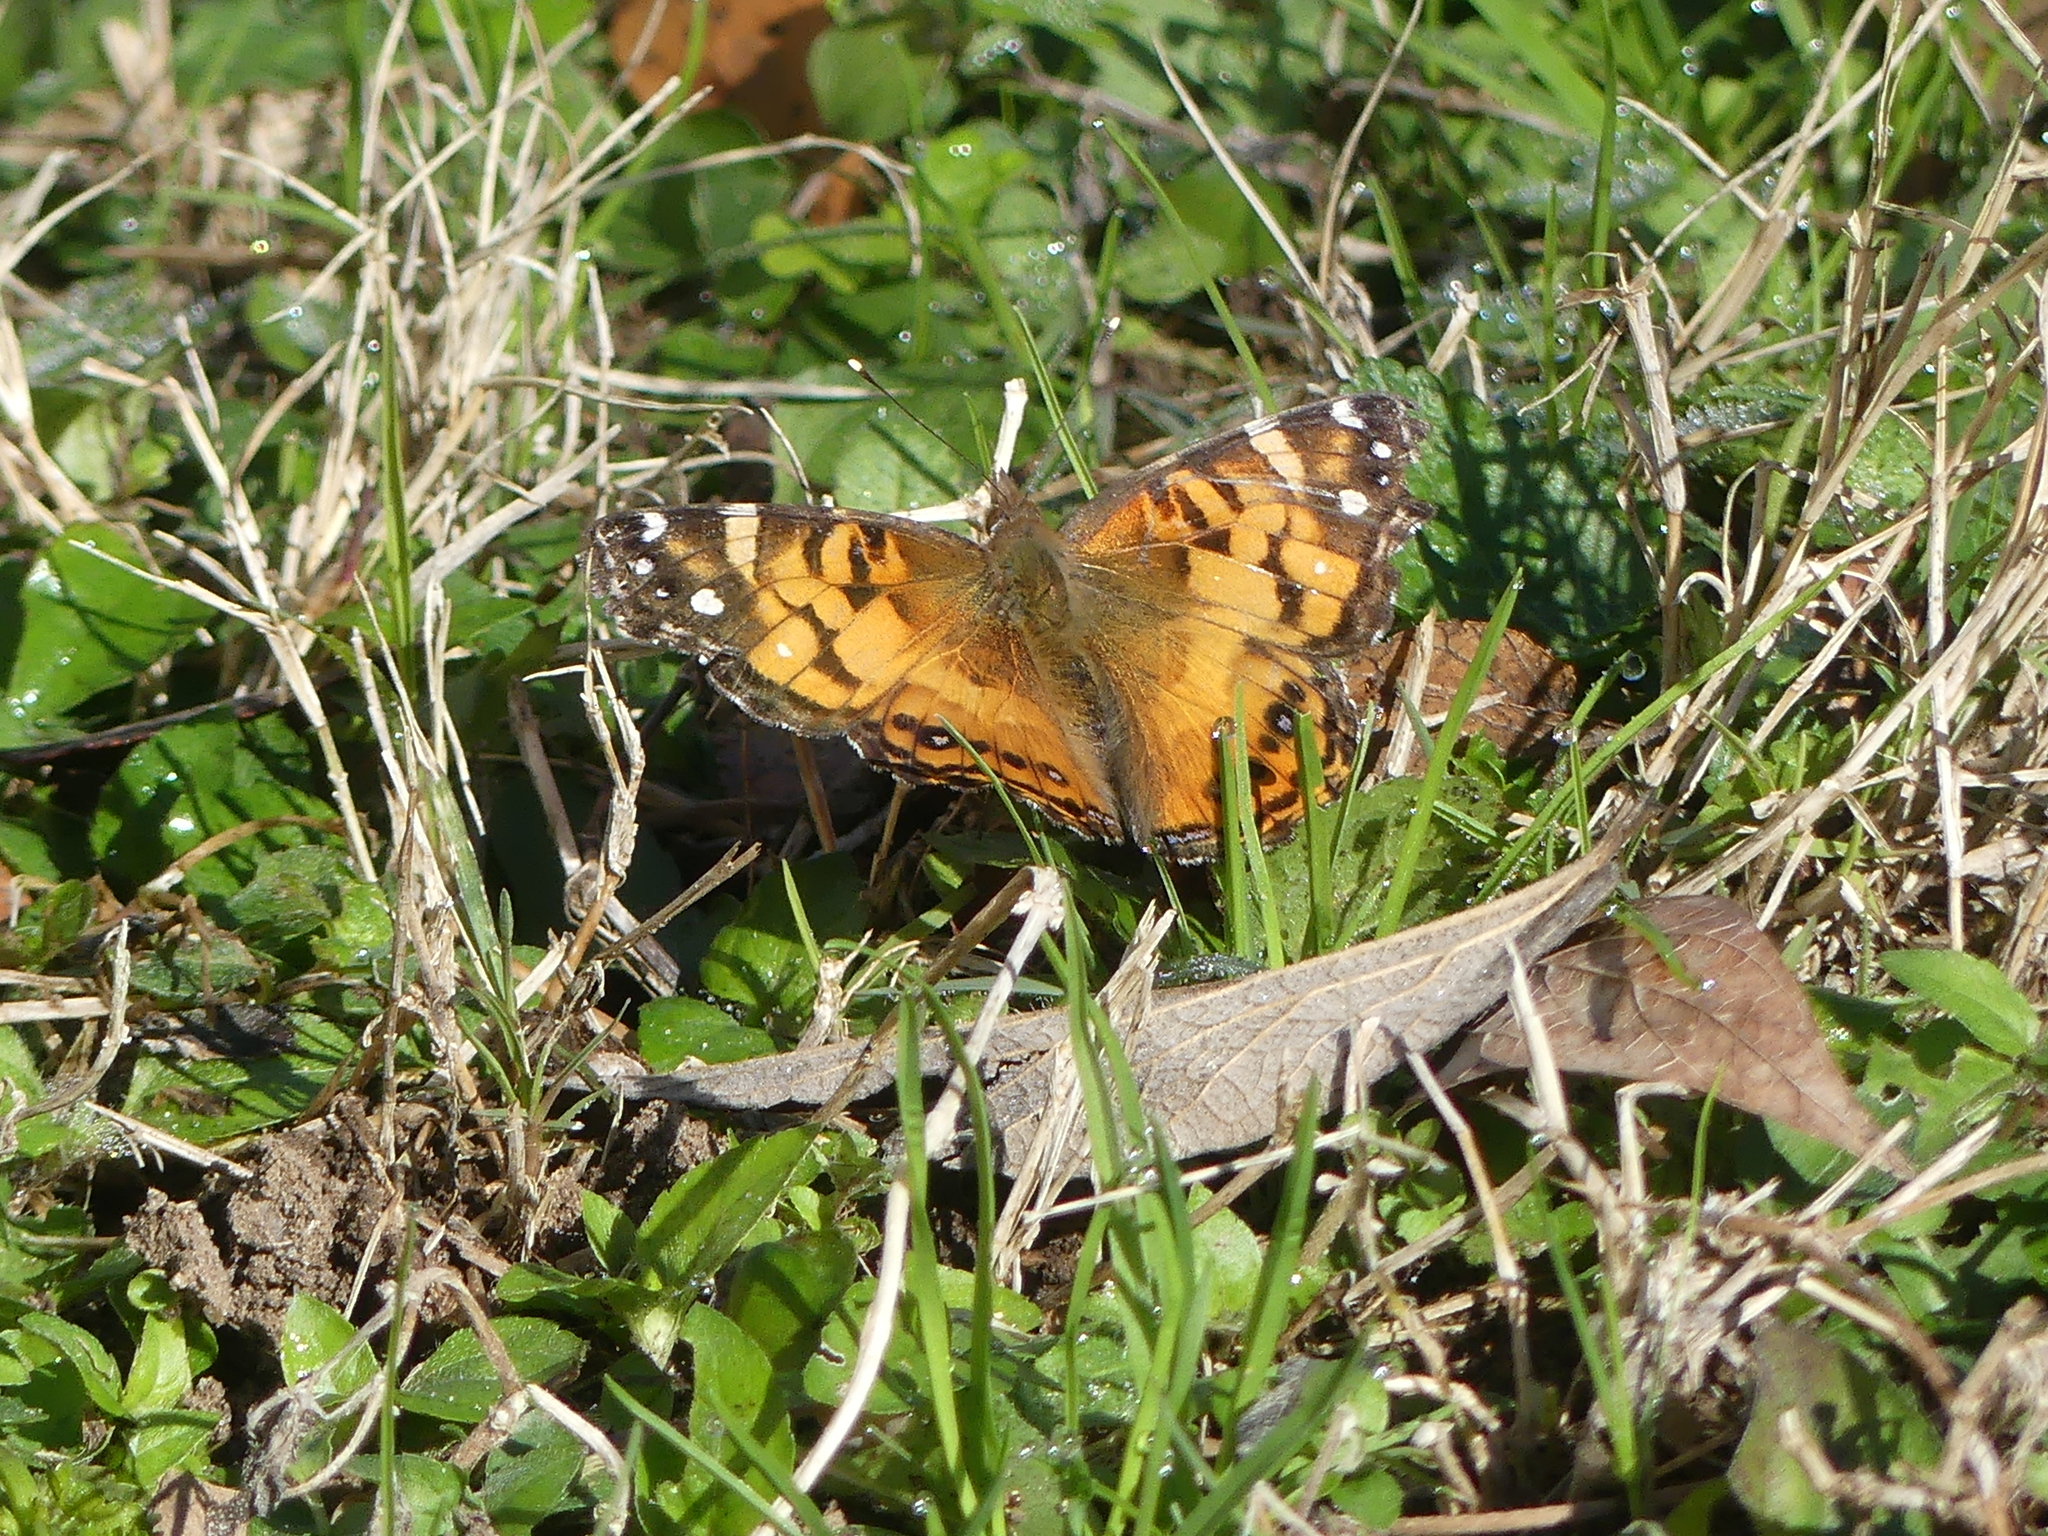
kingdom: Animalia
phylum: Arthropoda
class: Insecta
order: Lepidoptera
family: Nymphalidae
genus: Vanessa
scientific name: Vanessa virginiensis
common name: American lady
